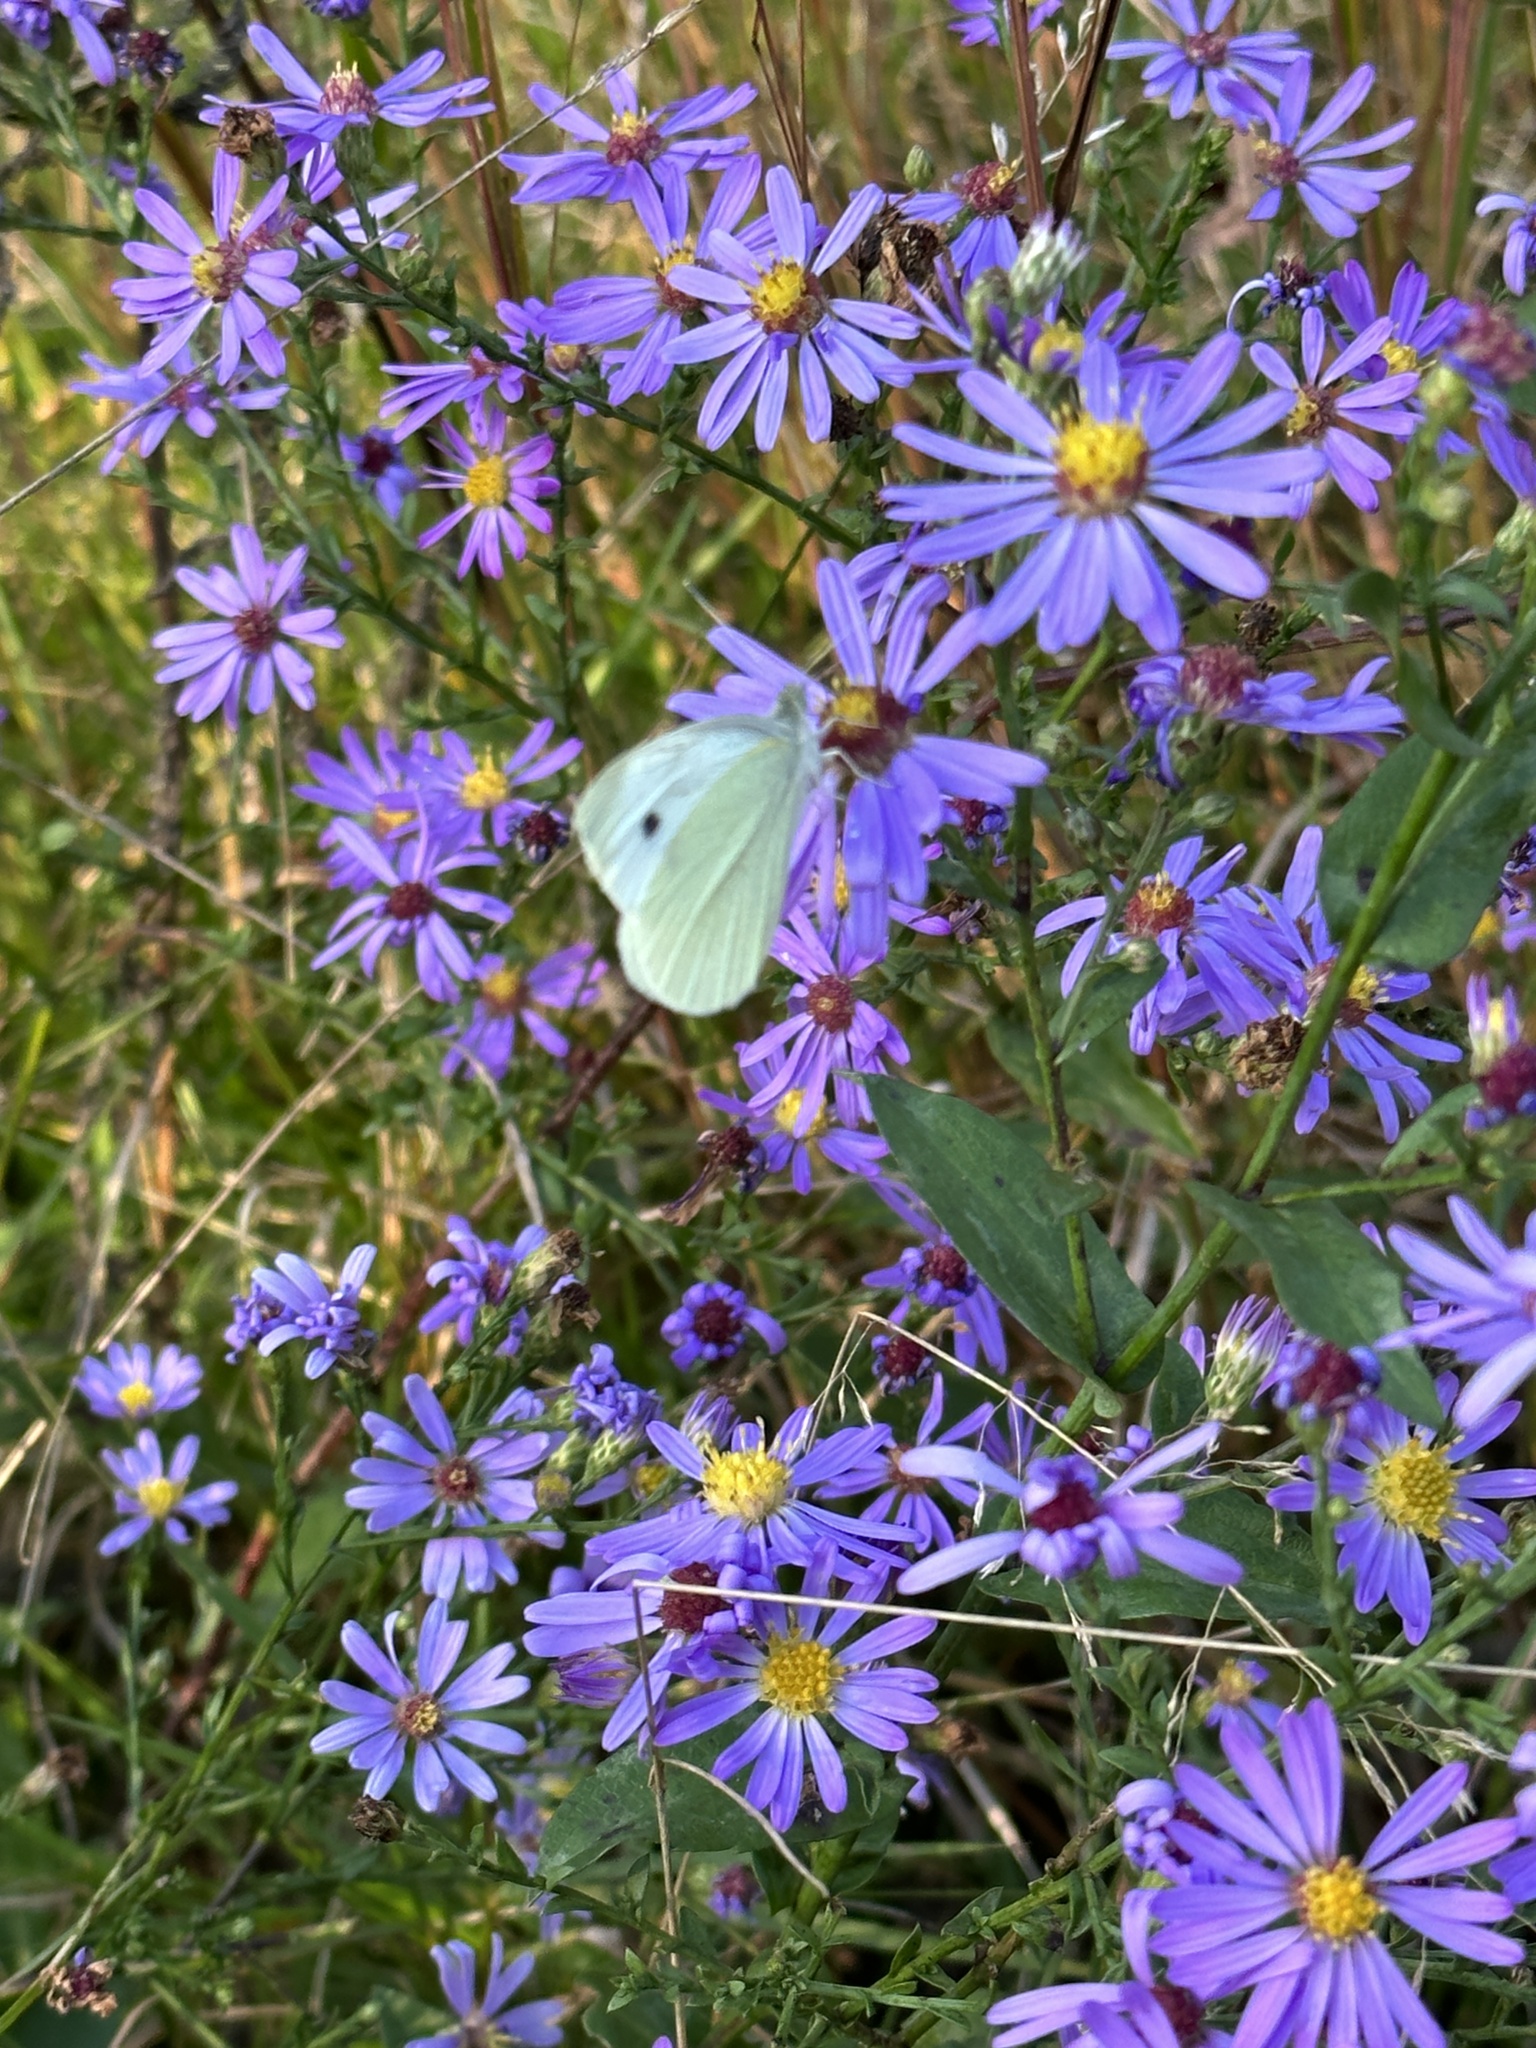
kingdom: Animalia
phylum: Arthropoda
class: Insecta
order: Lepidoptera
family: Pieridae
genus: Pieris
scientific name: Pieris rapae
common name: Small white
